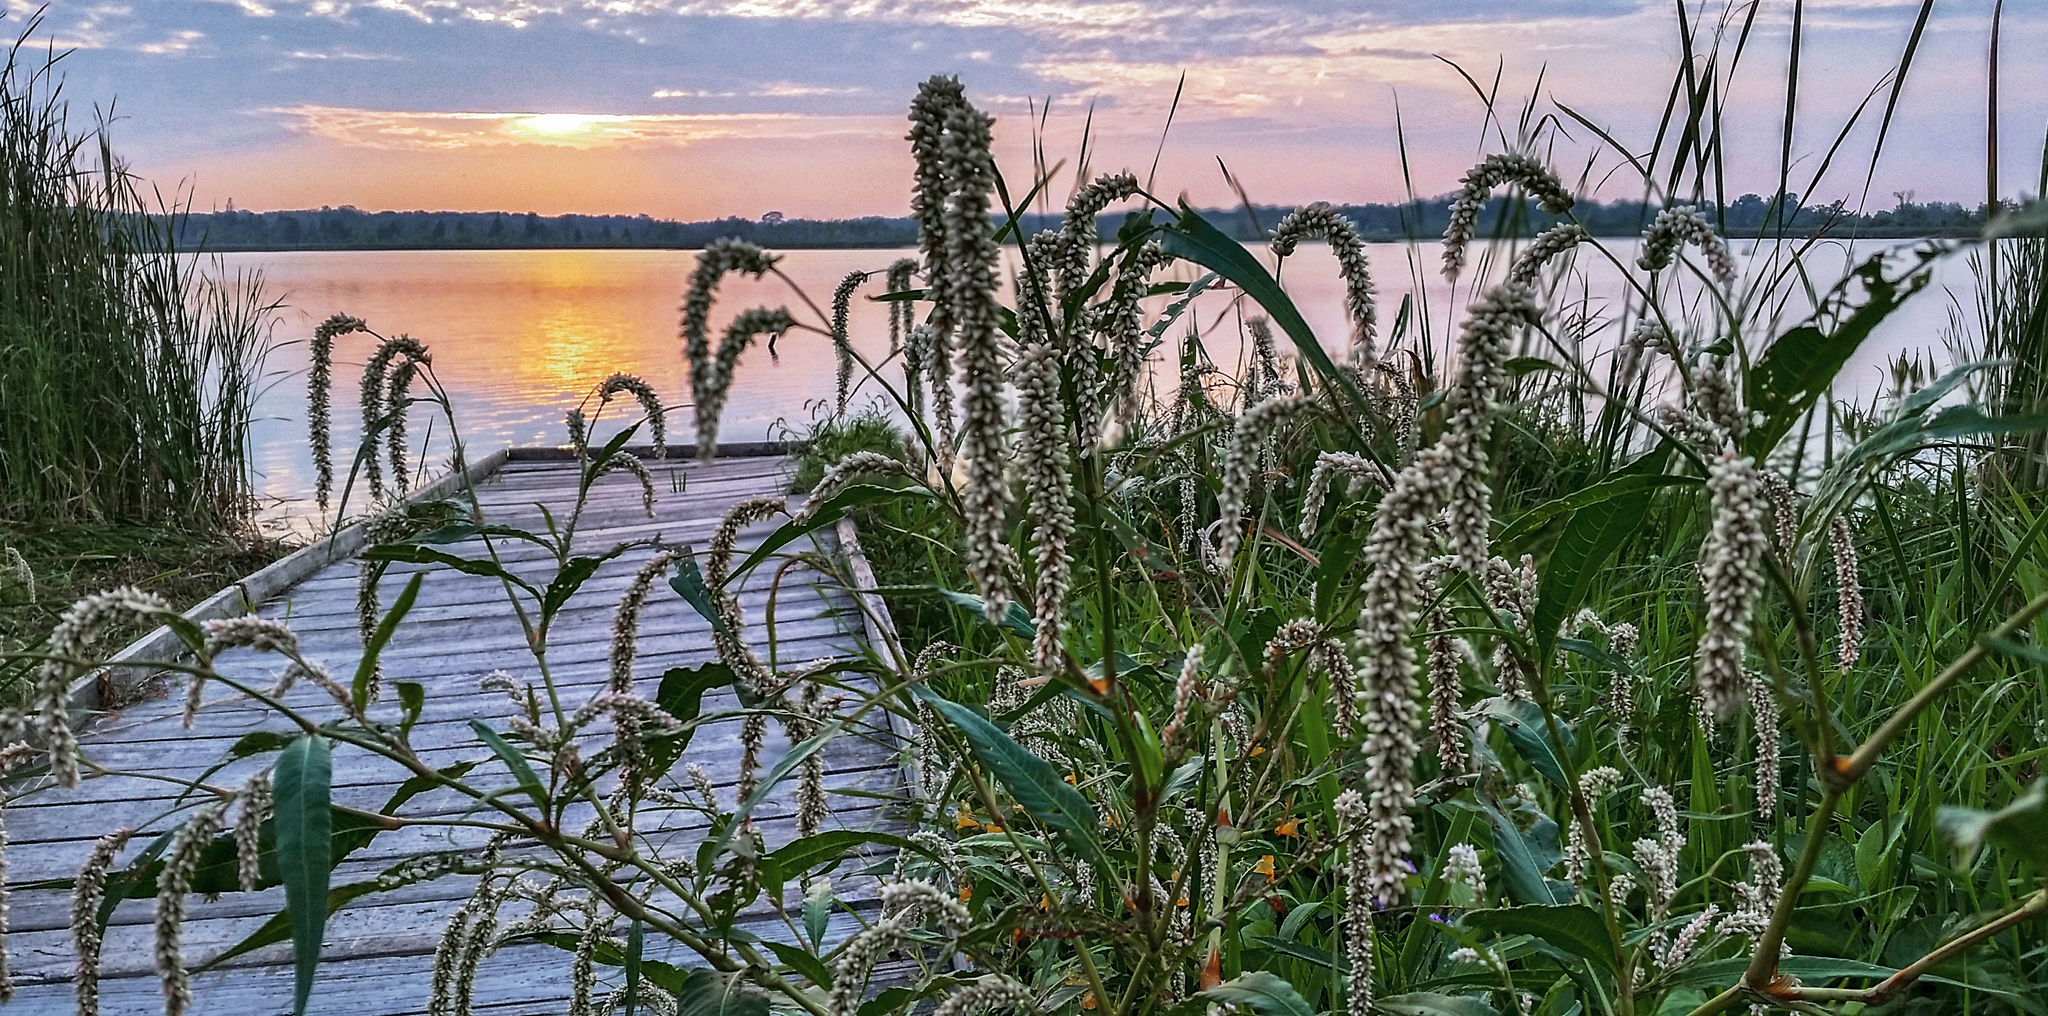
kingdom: Plantae
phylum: Tracheophyta
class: Magnoliopsida
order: Caryophyllales
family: Polygonaceae
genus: Persicaria
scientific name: Persicaria lapathifolia
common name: Curlytop knotweed
